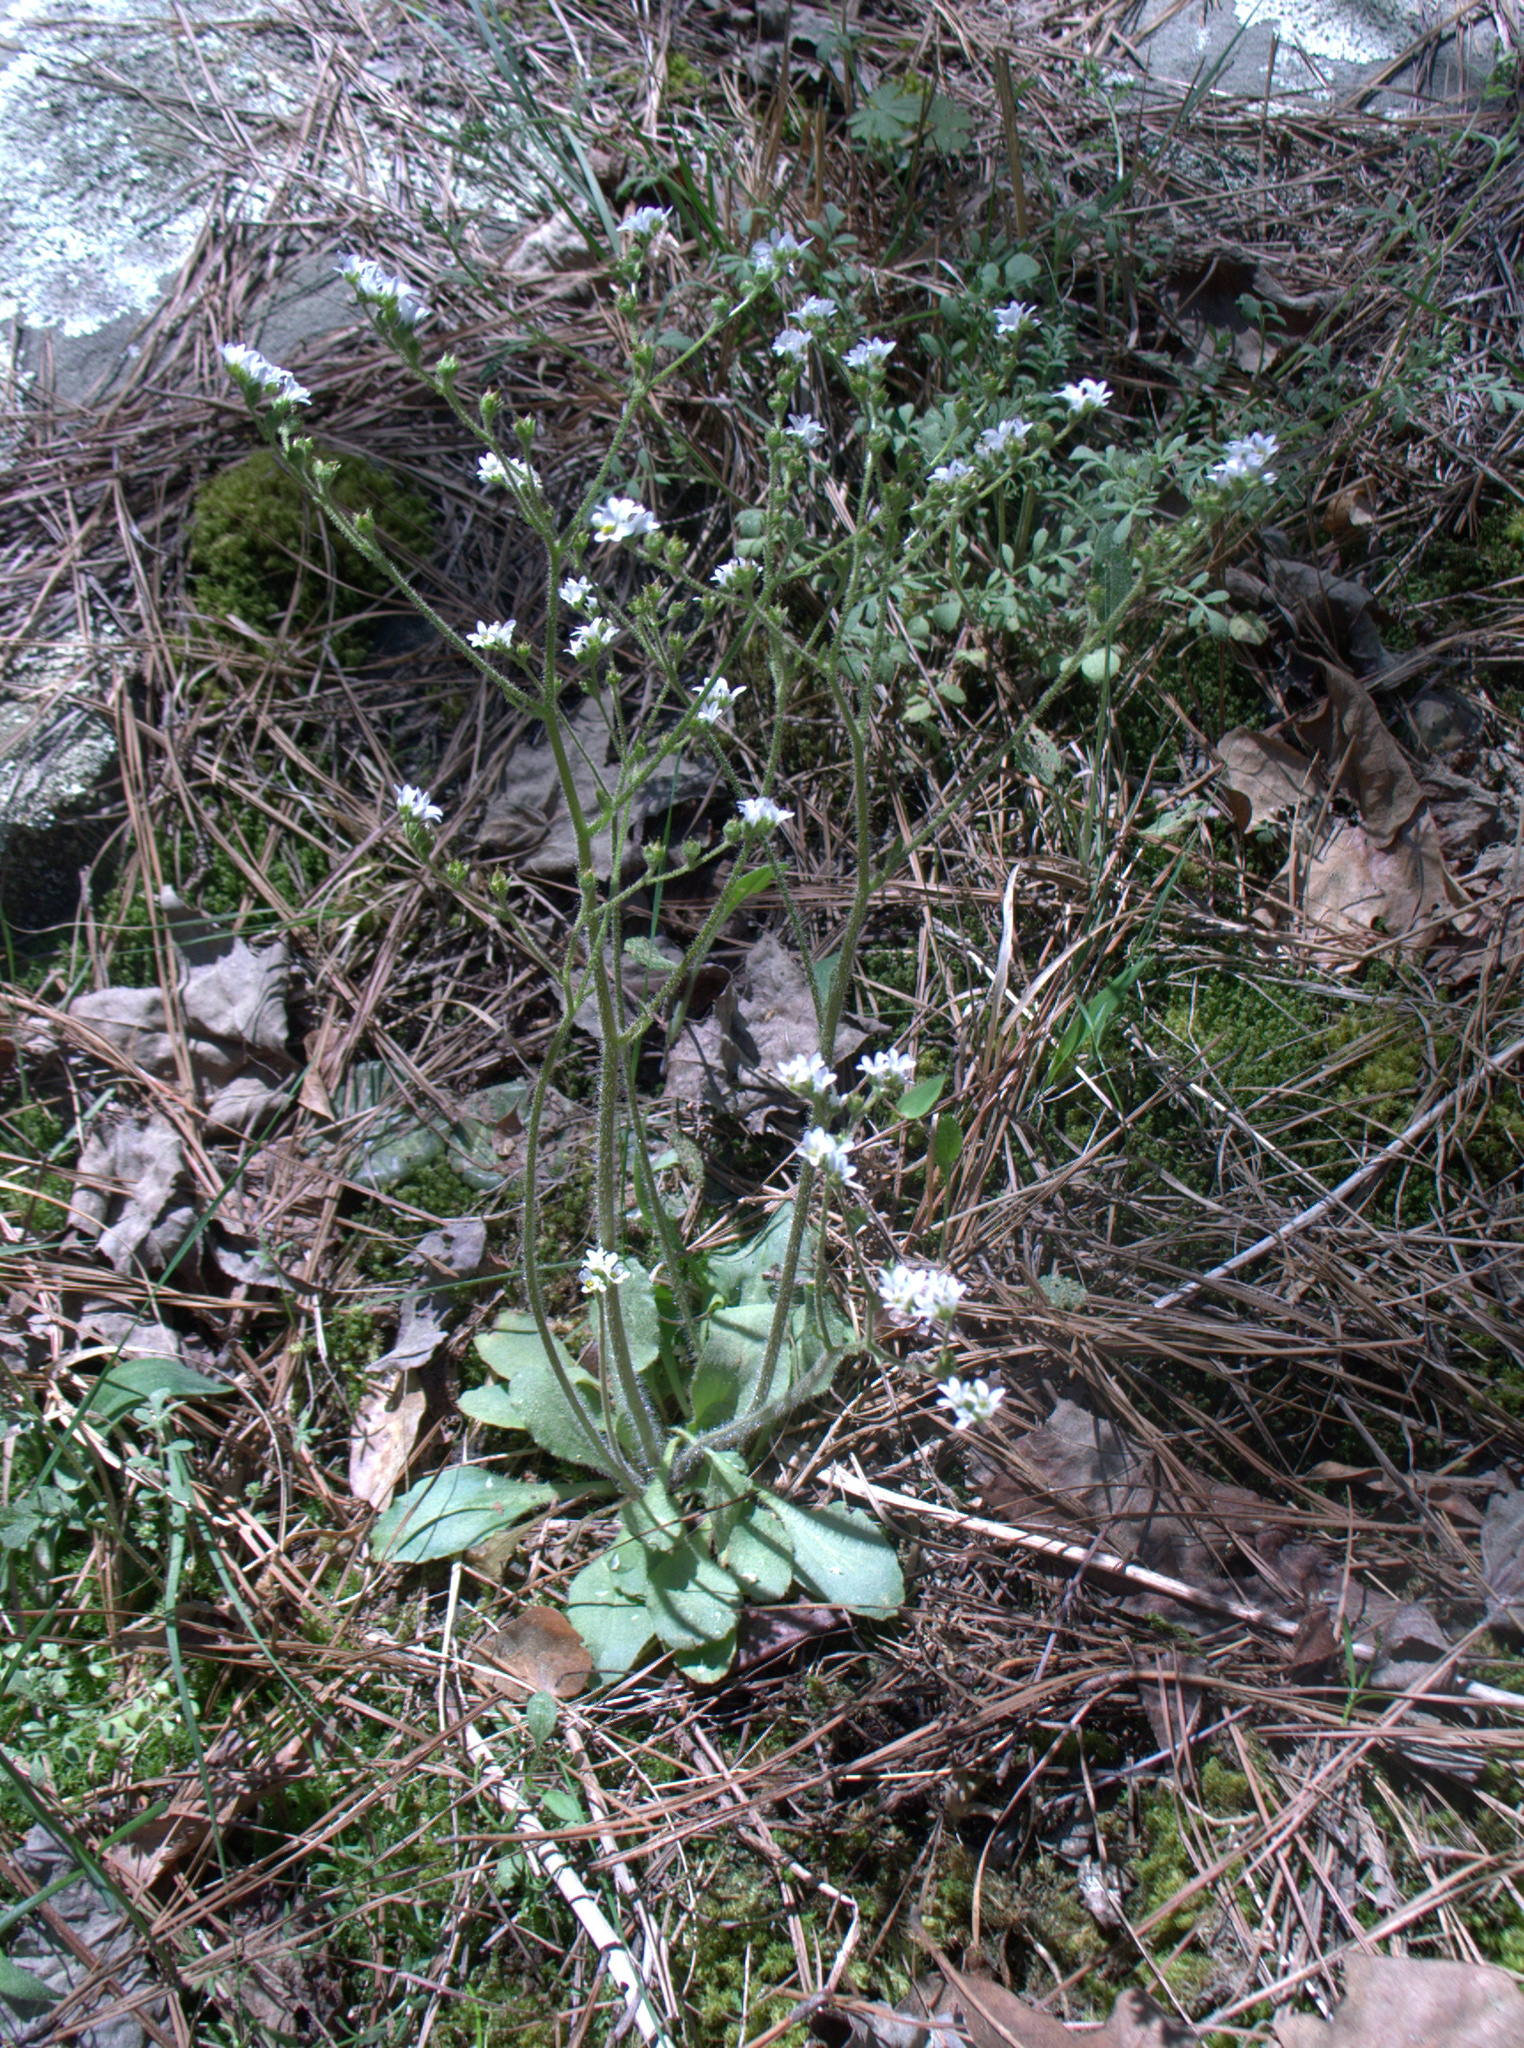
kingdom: Plantae
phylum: Tracheophyta
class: Magnoliopsida
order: Saxifragales
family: Saxifragaceae
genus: Micranthes
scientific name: Micranthes virginiensis
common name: Early saxifrage
